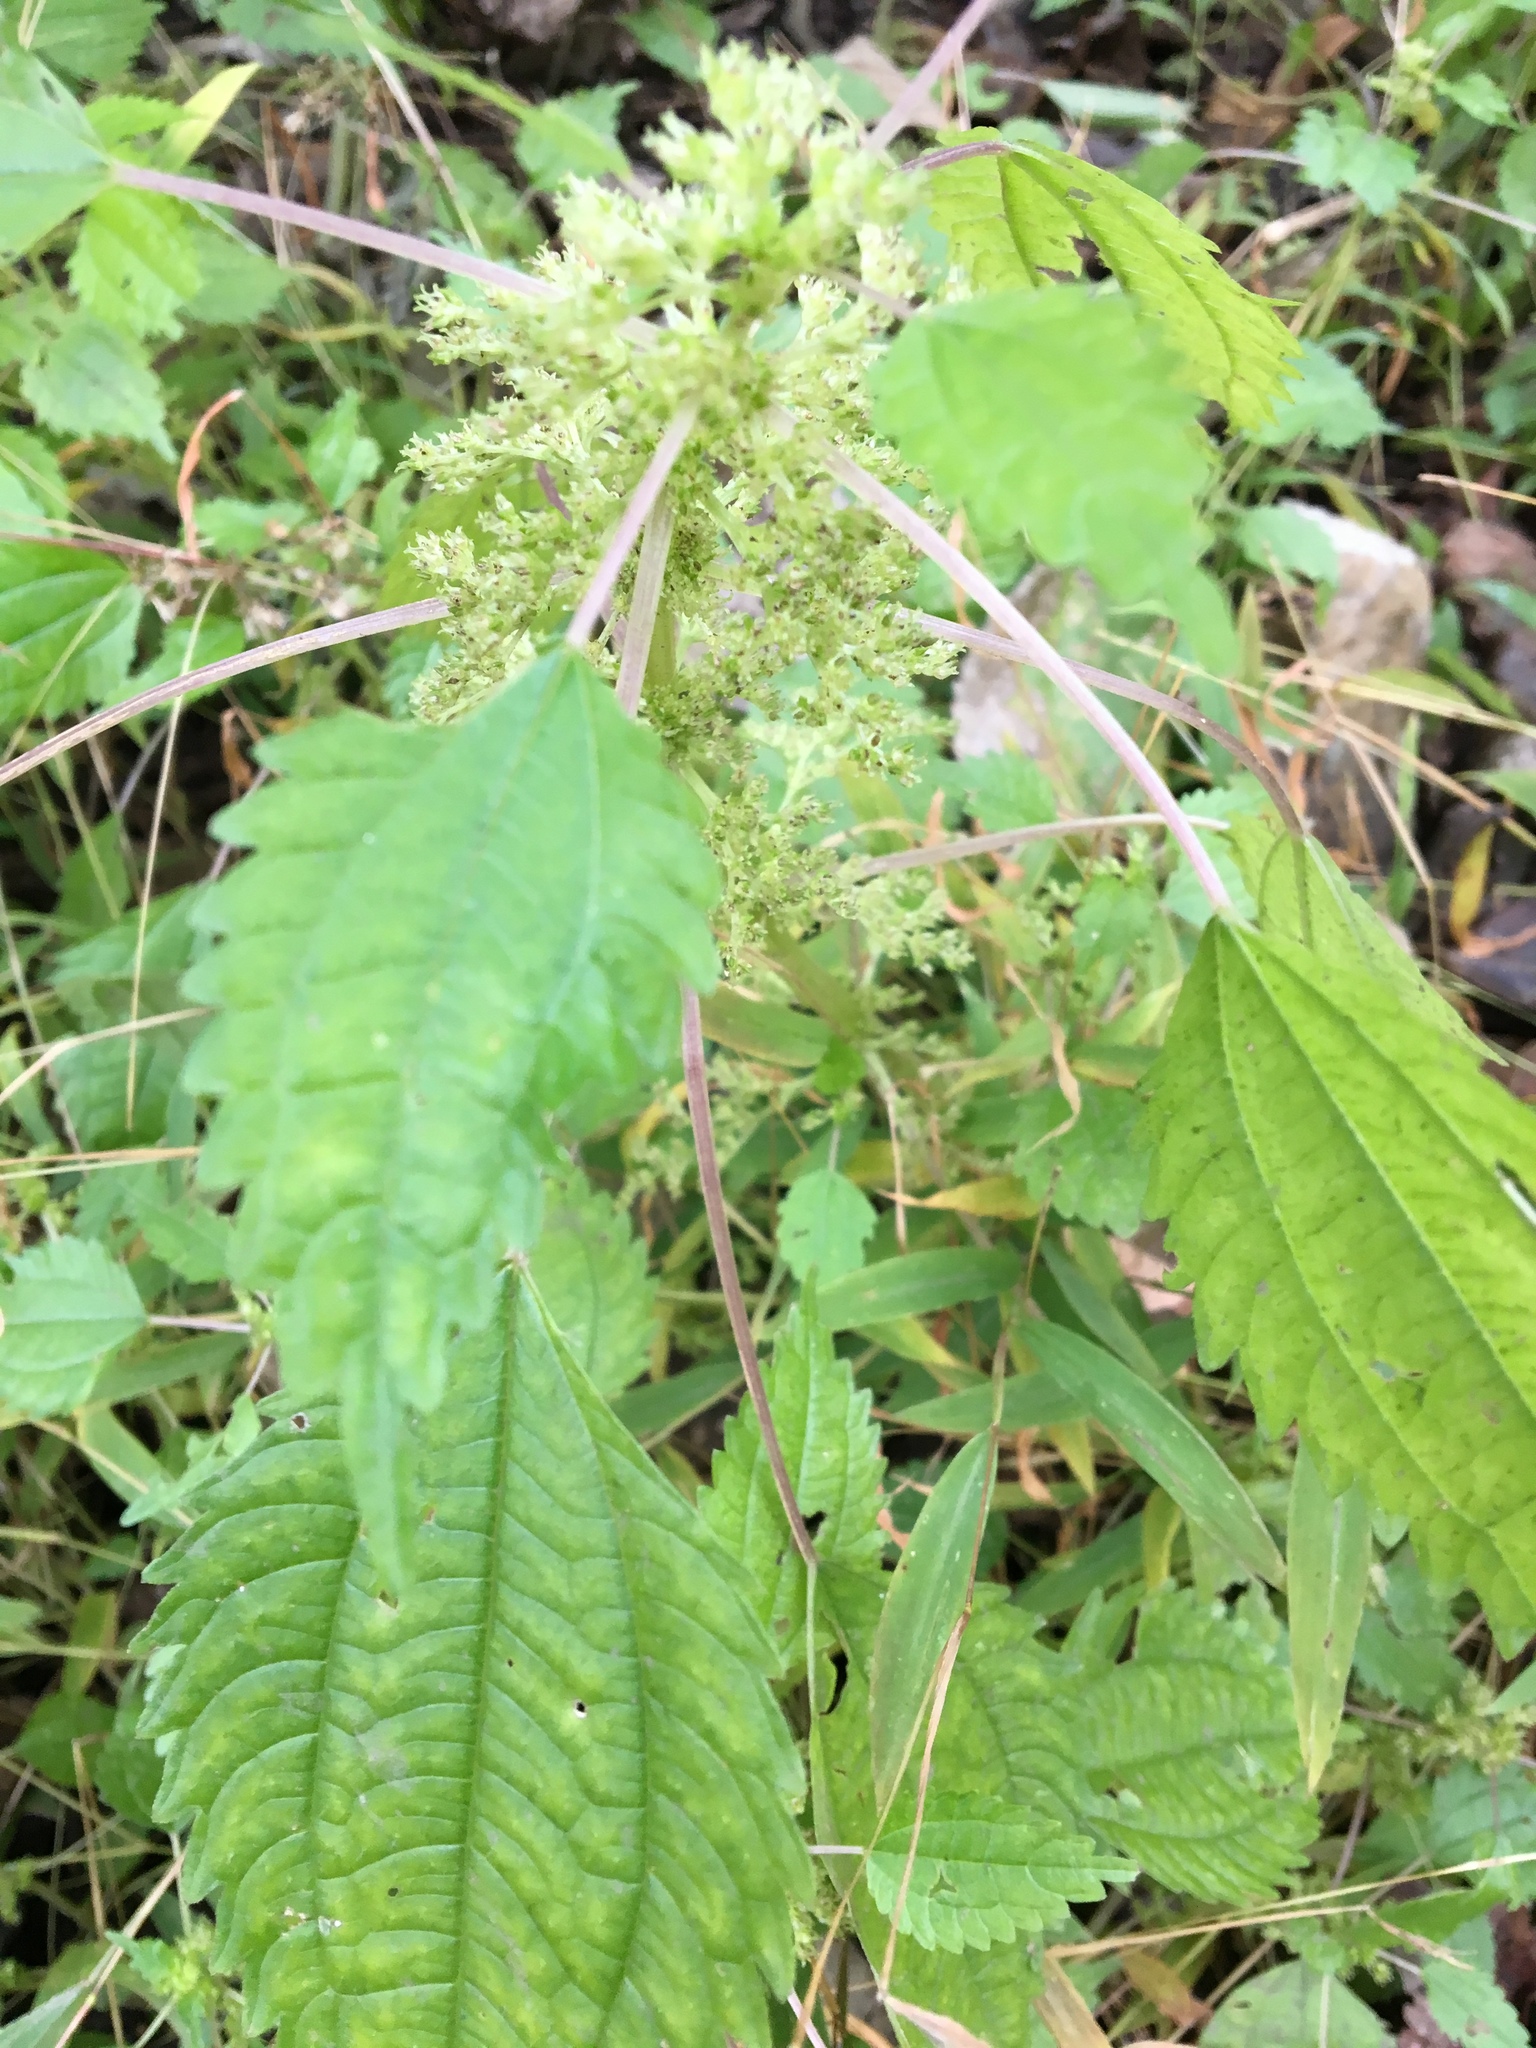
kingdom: Plantae
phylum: Tracheophyta
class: Magnoliopsida
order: Rosales
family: Urticaceae
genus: Urtica
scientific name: Urtica dioica
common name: Common nettle
